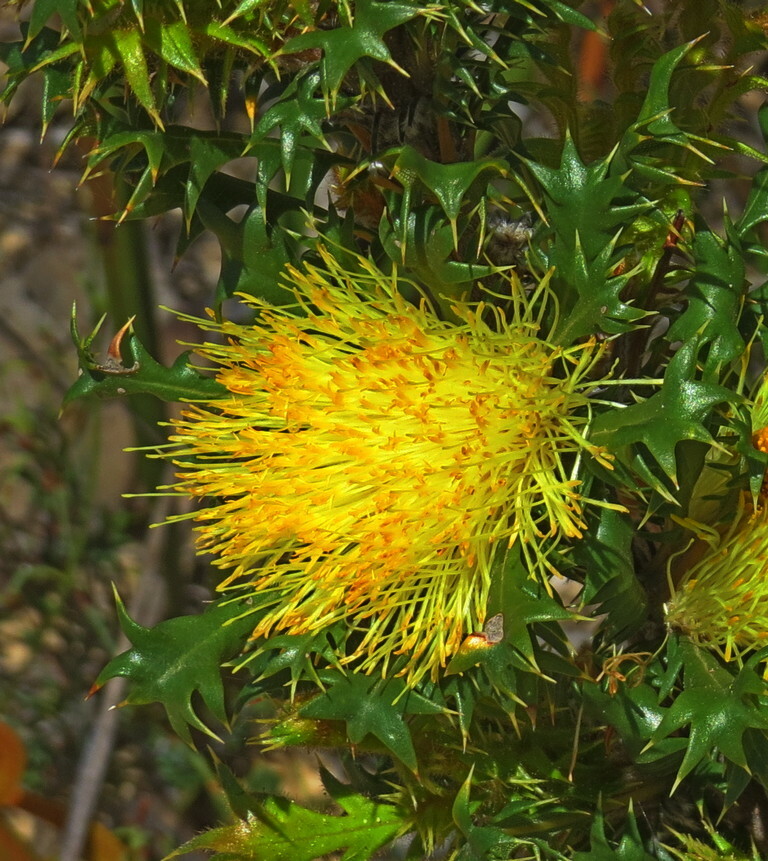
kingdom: Plantae
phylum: Tracheophyta
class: Magnoliopsida
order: Proteales
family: Proteaceae
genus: Banksia
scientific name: Banksia falcata
